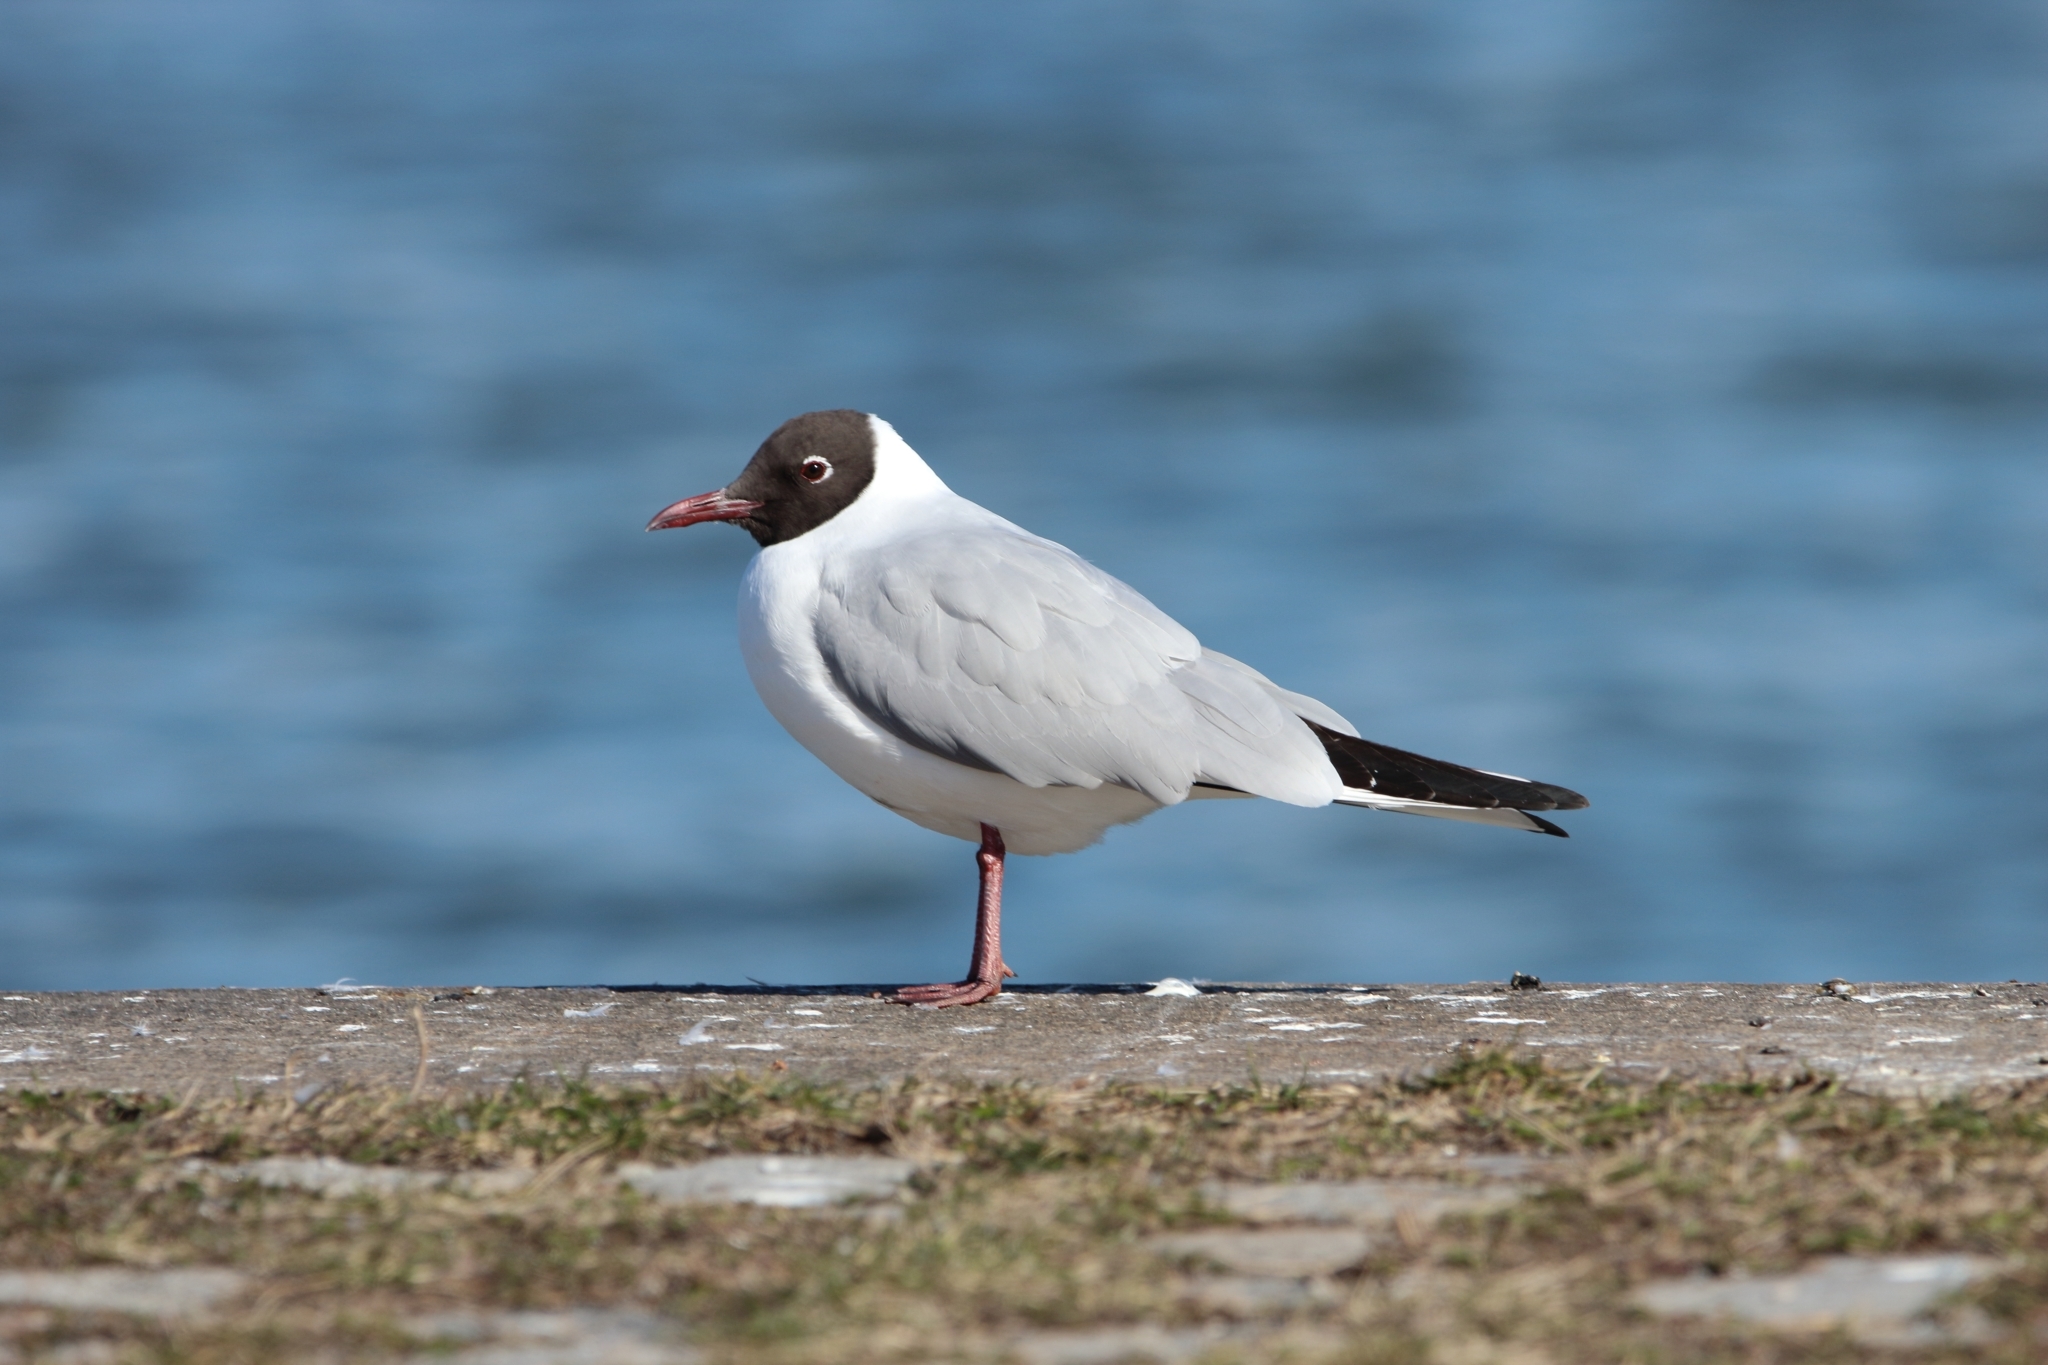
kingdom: Animalia
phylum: Chordata
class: Aves
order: Charadriiformes
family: Laridae
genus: Chroicocephalus
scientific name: Chroicocephalus ridibundus
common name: Black-headed gull
